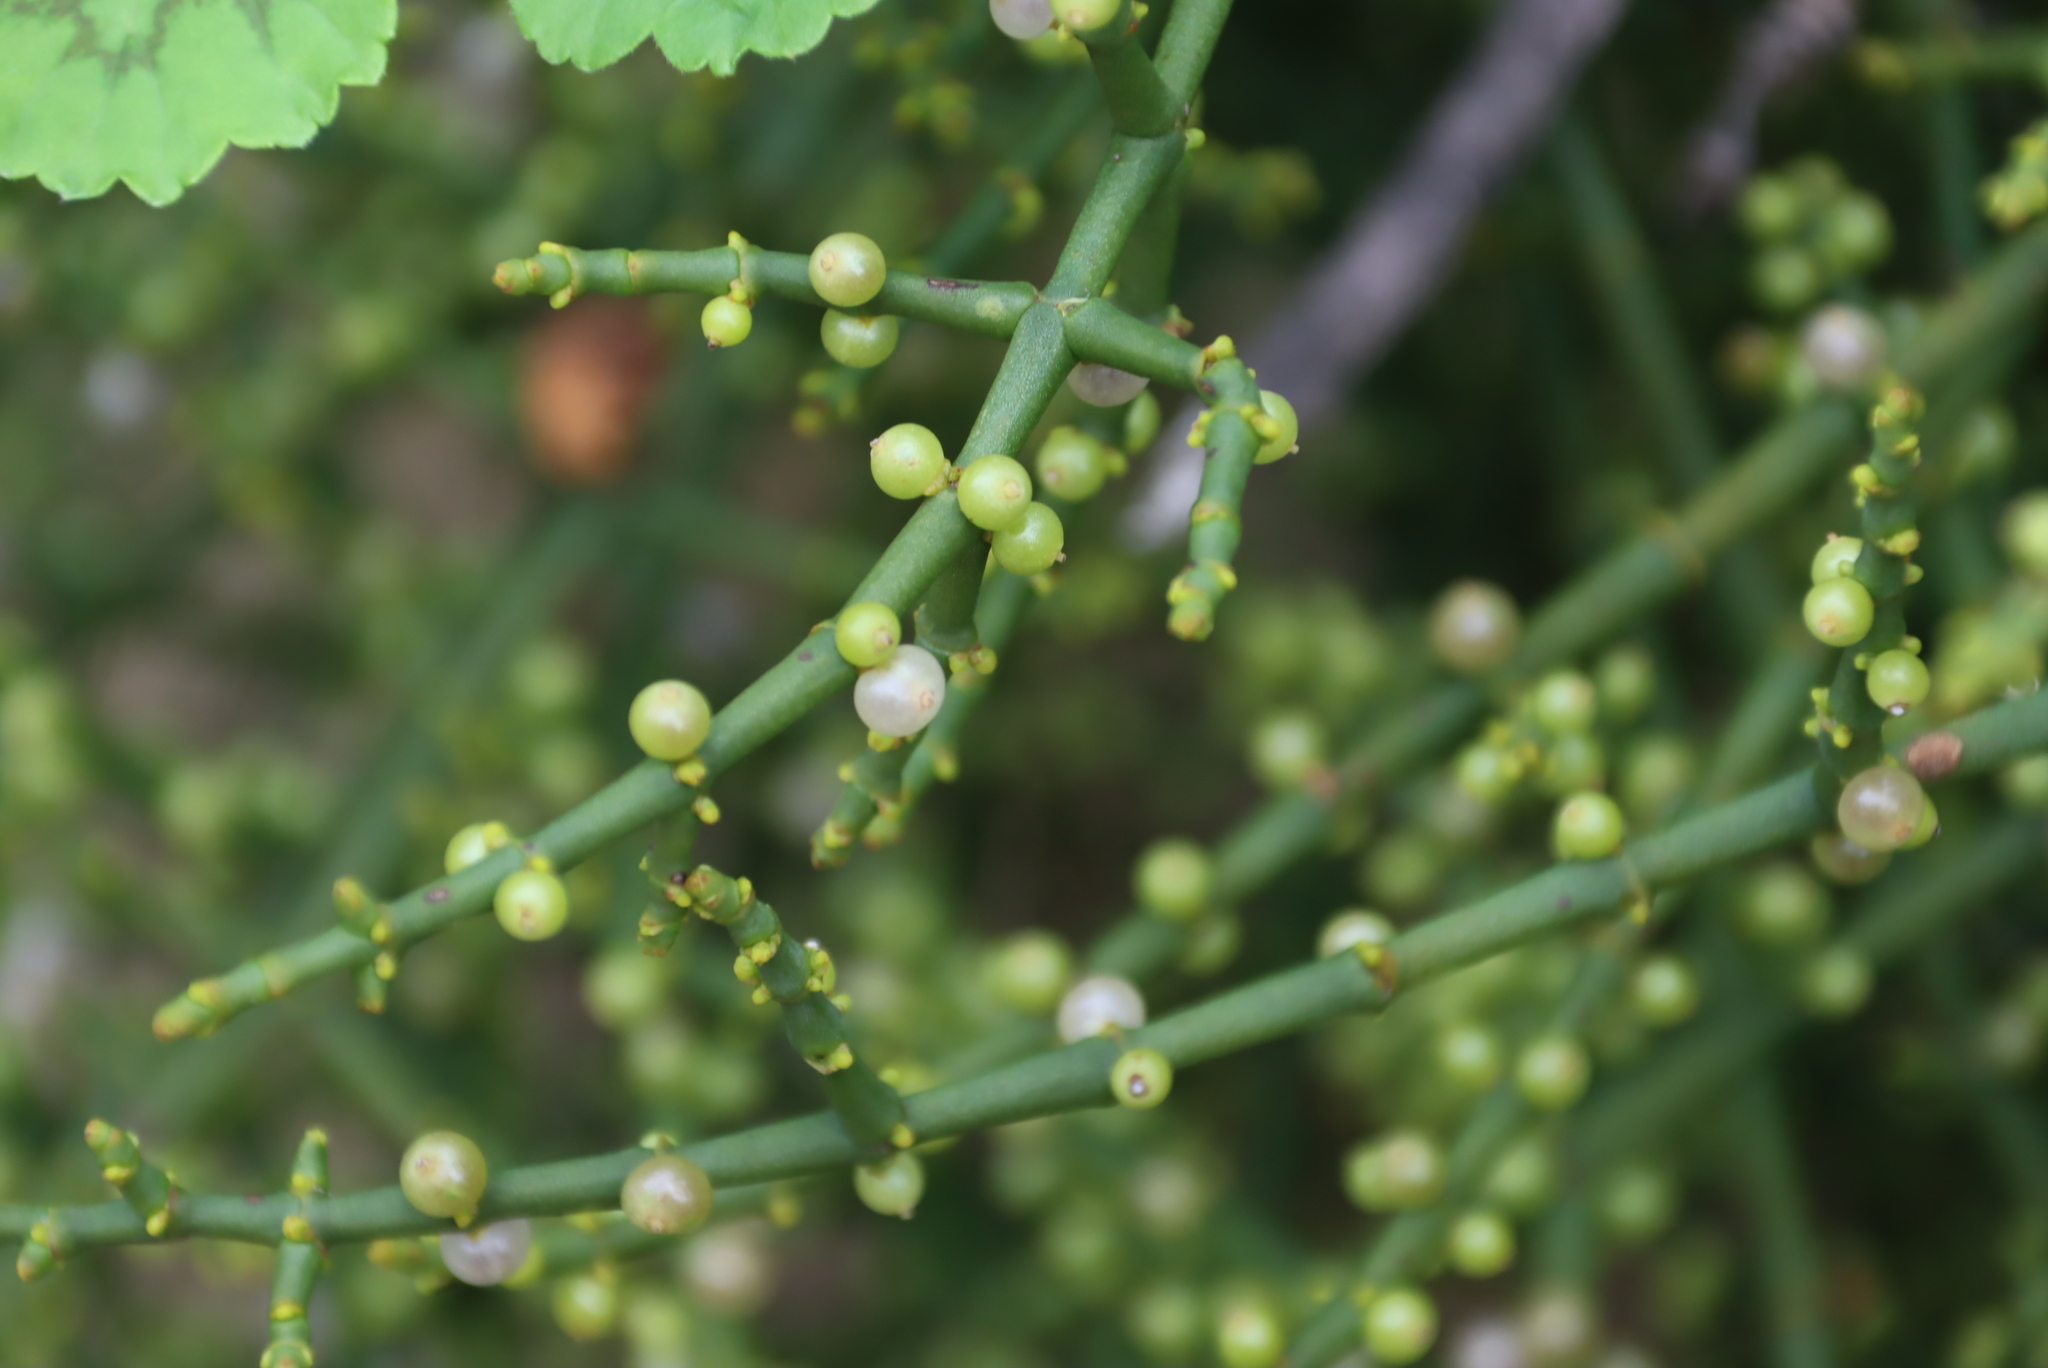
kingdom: Plantae
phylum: Tracheophyta
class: Magnoliopsida
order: Santalales
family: Viscaceae
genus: Viscum
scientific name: Viscum capense
